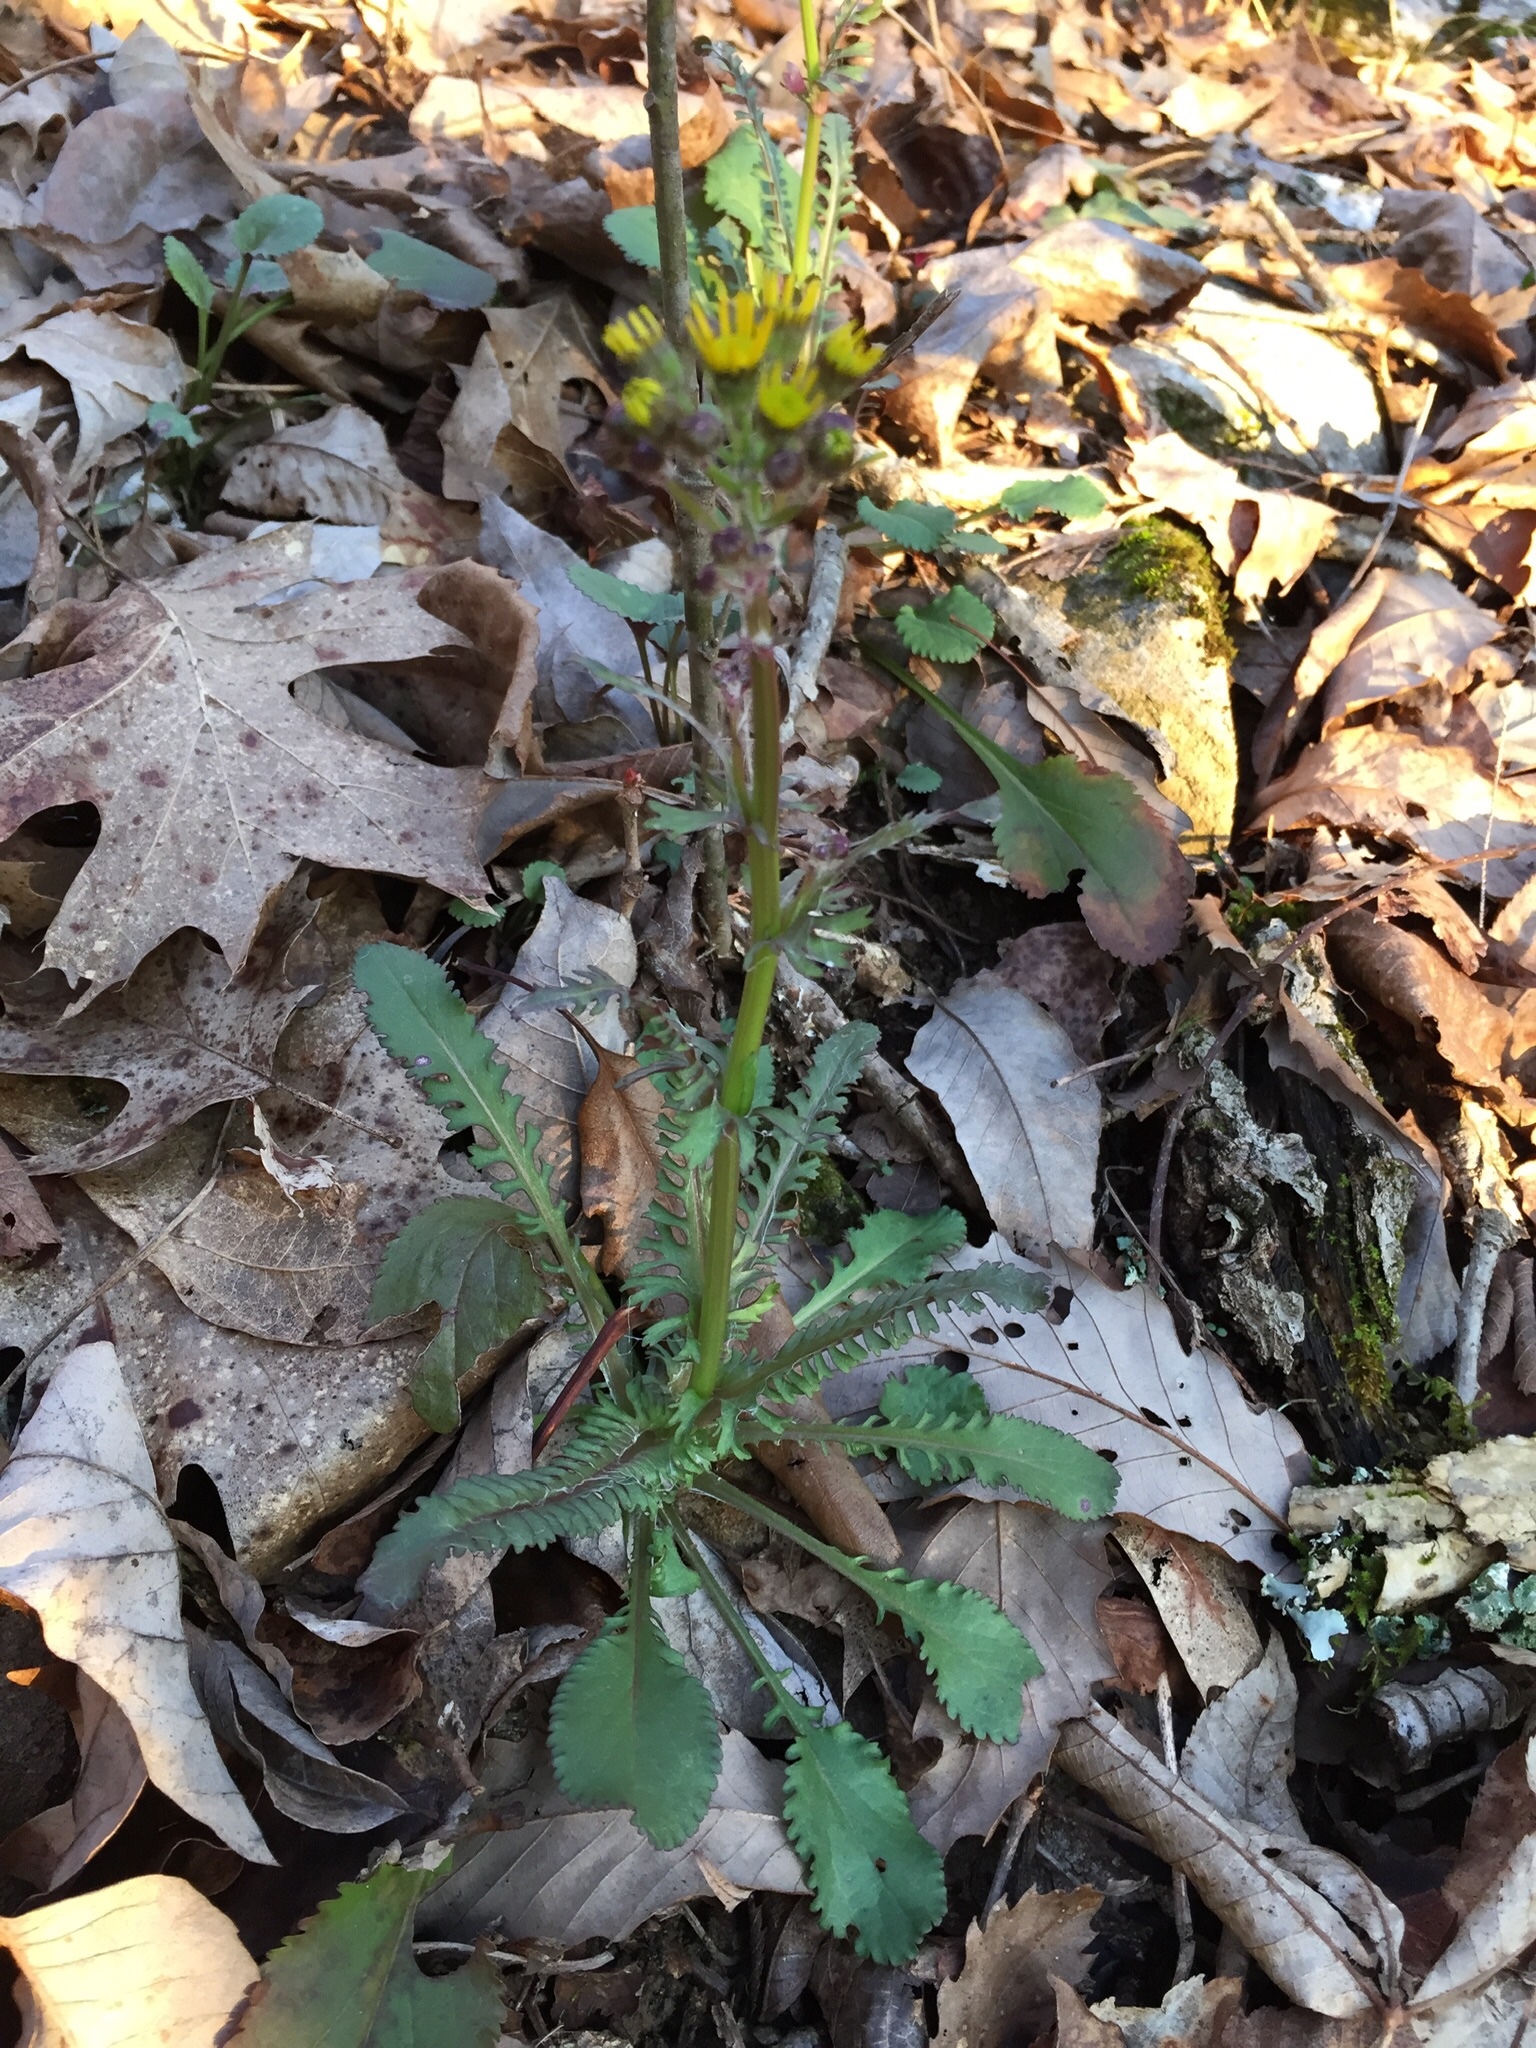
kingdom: Plantae
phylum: Tracheophyta
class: Magnoliopsida
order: Asterales
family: Asteraceae
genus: Packera
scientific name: Packera obovata
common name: Round-leaf ragwort
